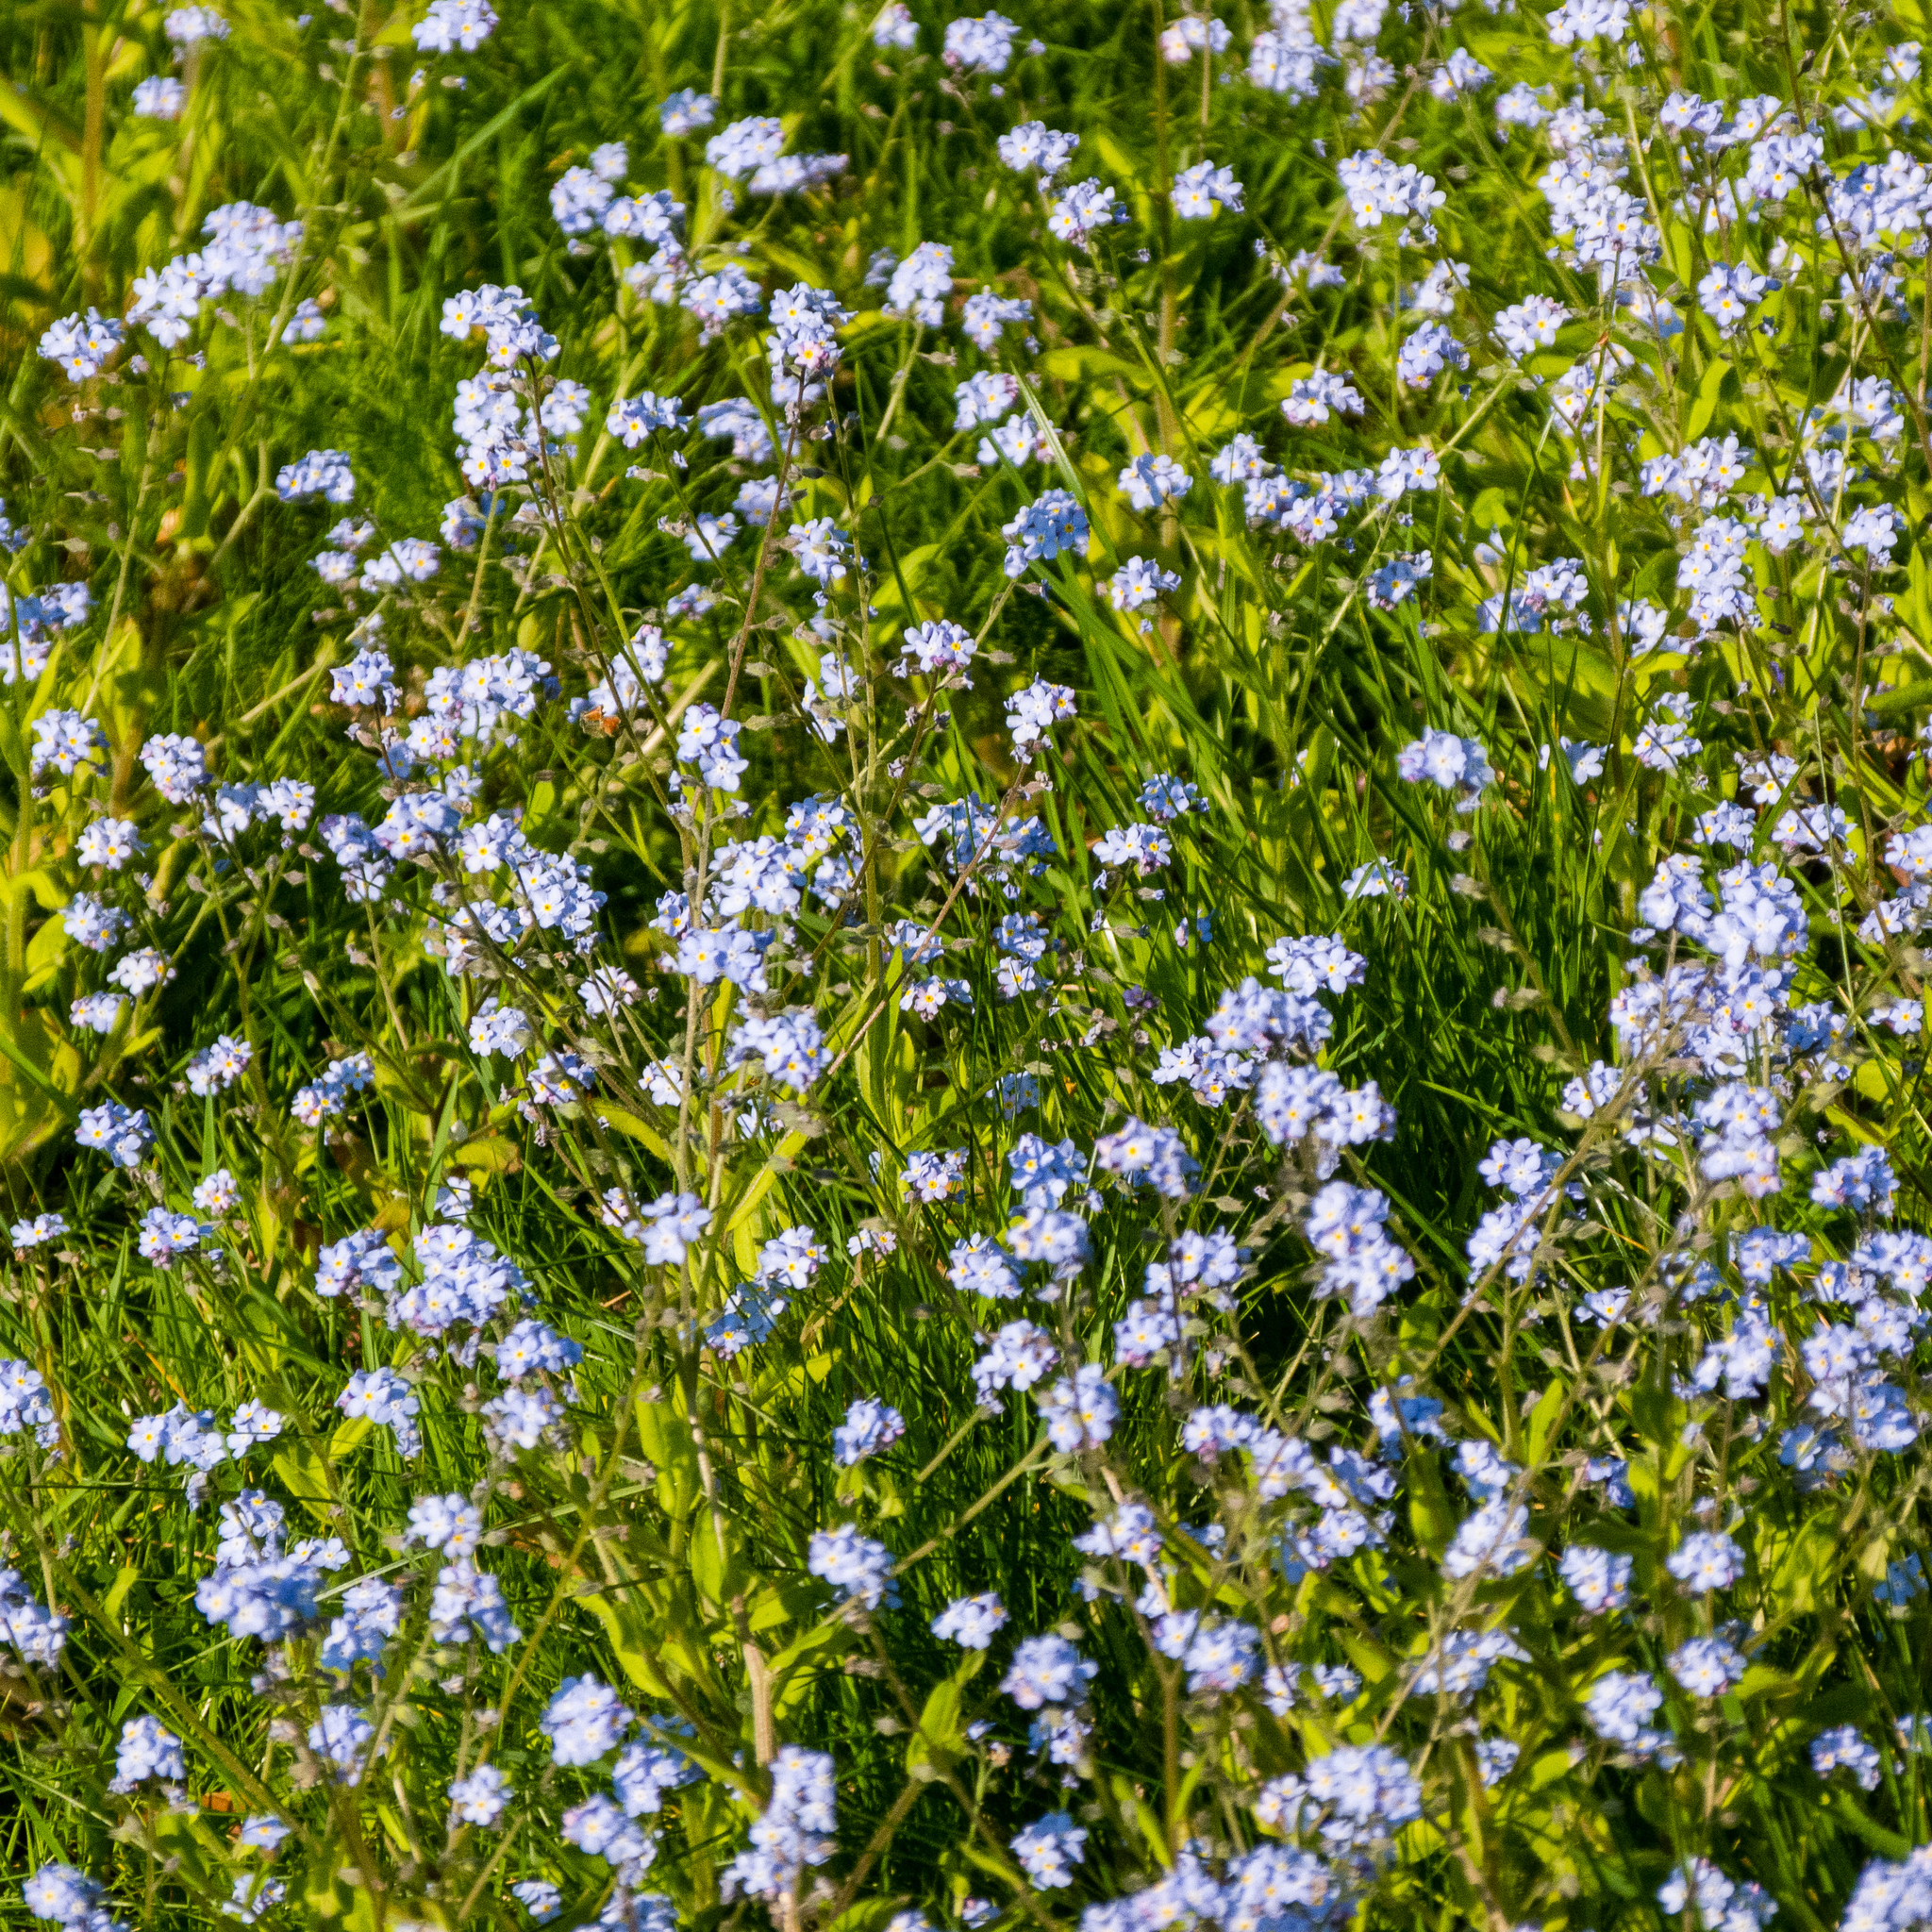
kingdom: Plantae
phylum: Tracheophyta
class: Magnoliopsida
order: Boraginales
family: Boraginaceae
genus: Myosotis
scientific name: Myosotis sylvatica
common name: Wood forget-me-not
